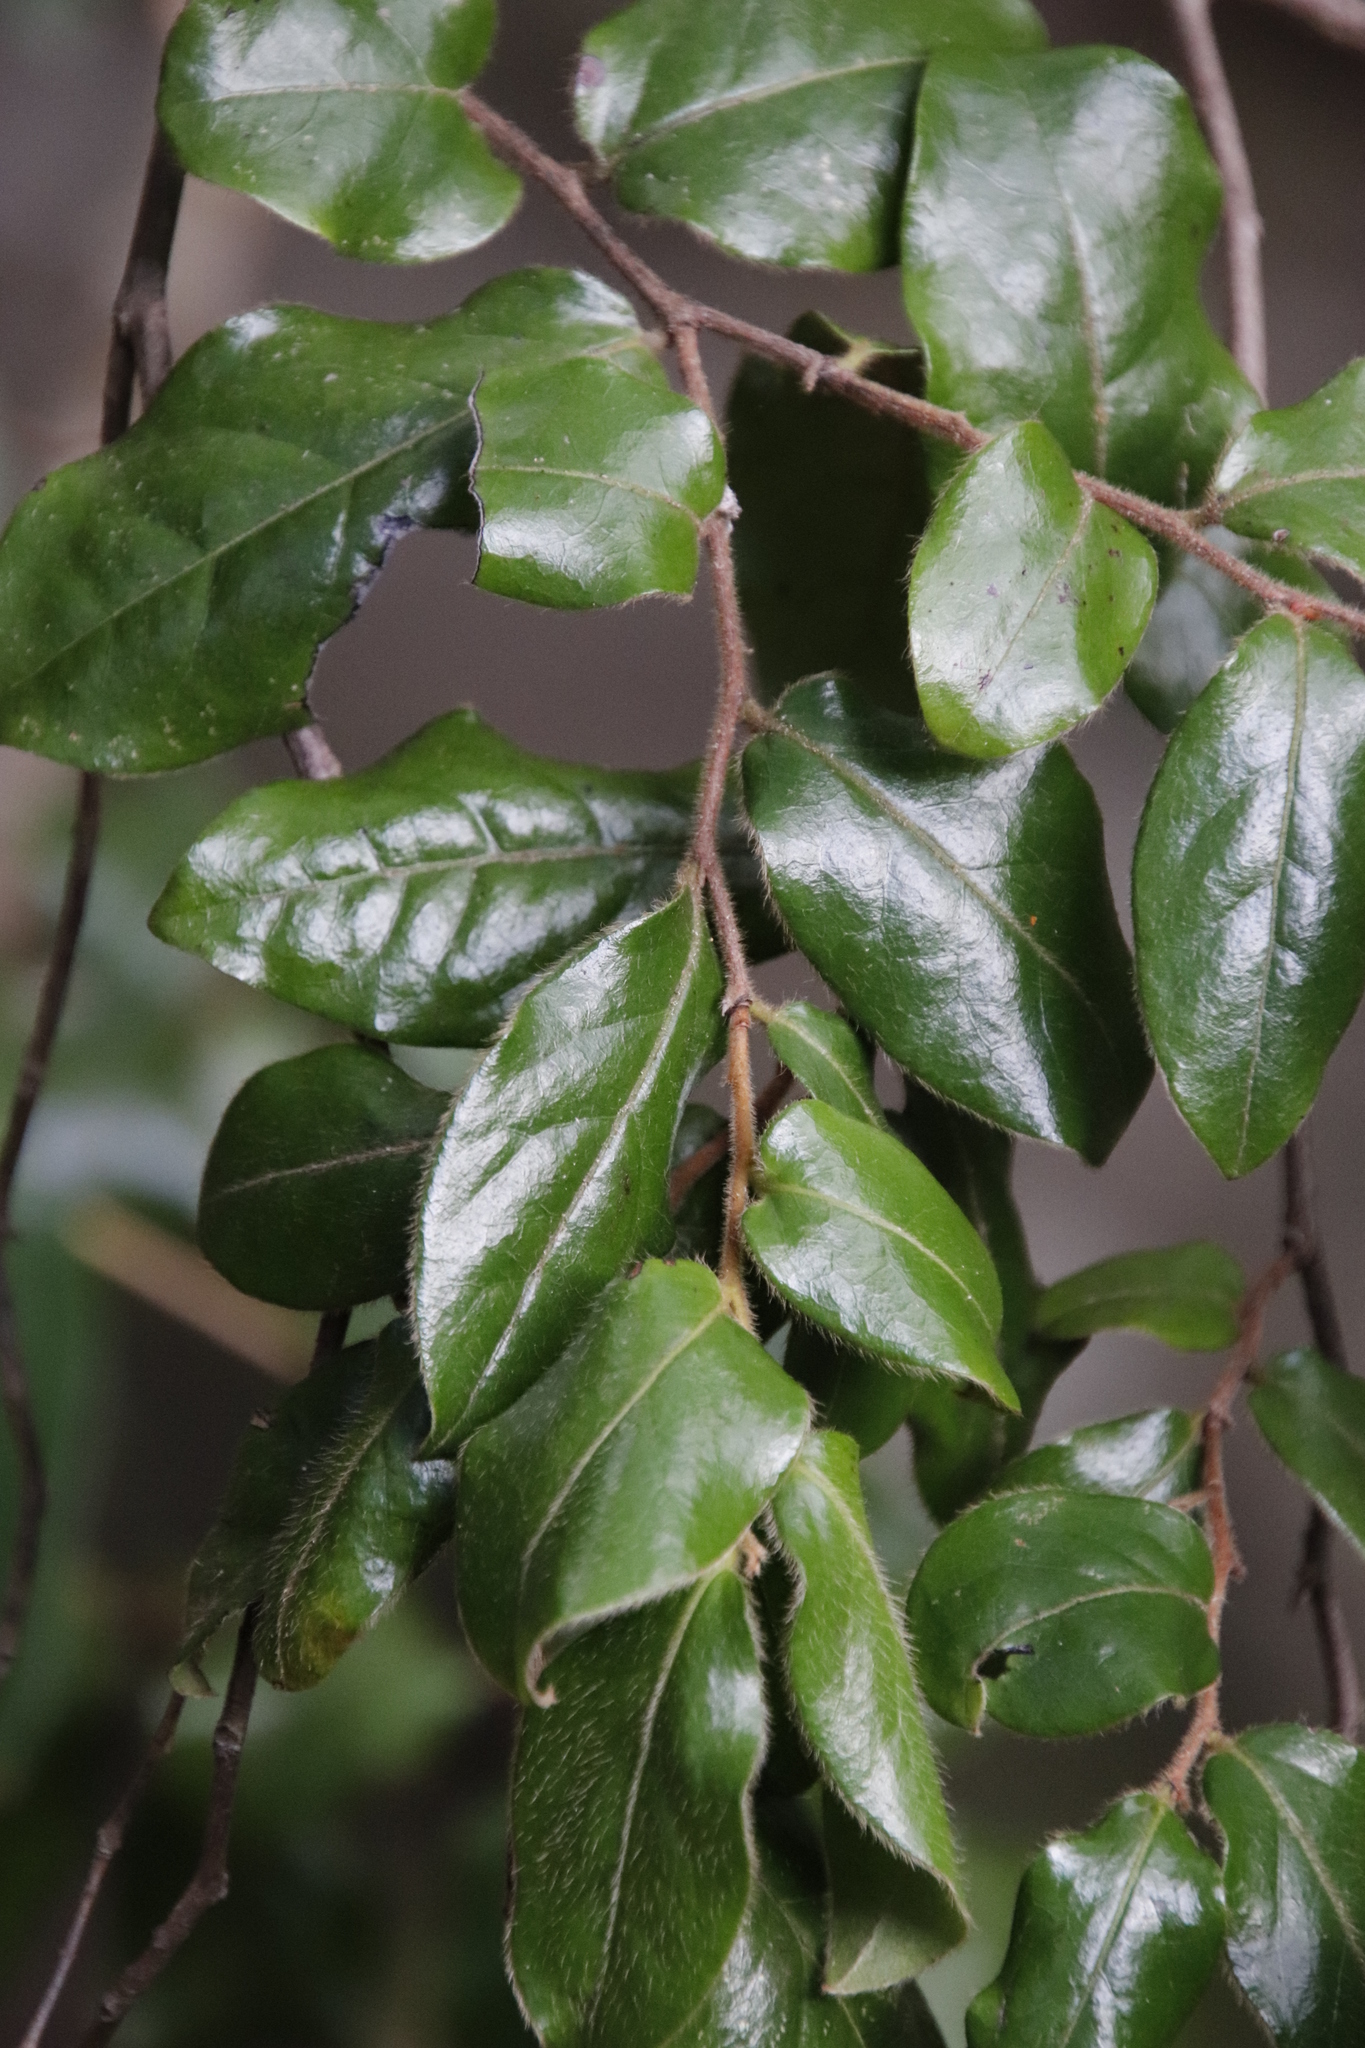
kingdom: Plantae
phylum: Tracheophyta
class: Magnoliopsida
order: Ericales
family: Ebenaceae
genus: Diospyros
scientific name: Diospyros whyteana
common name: Bladder-nut
